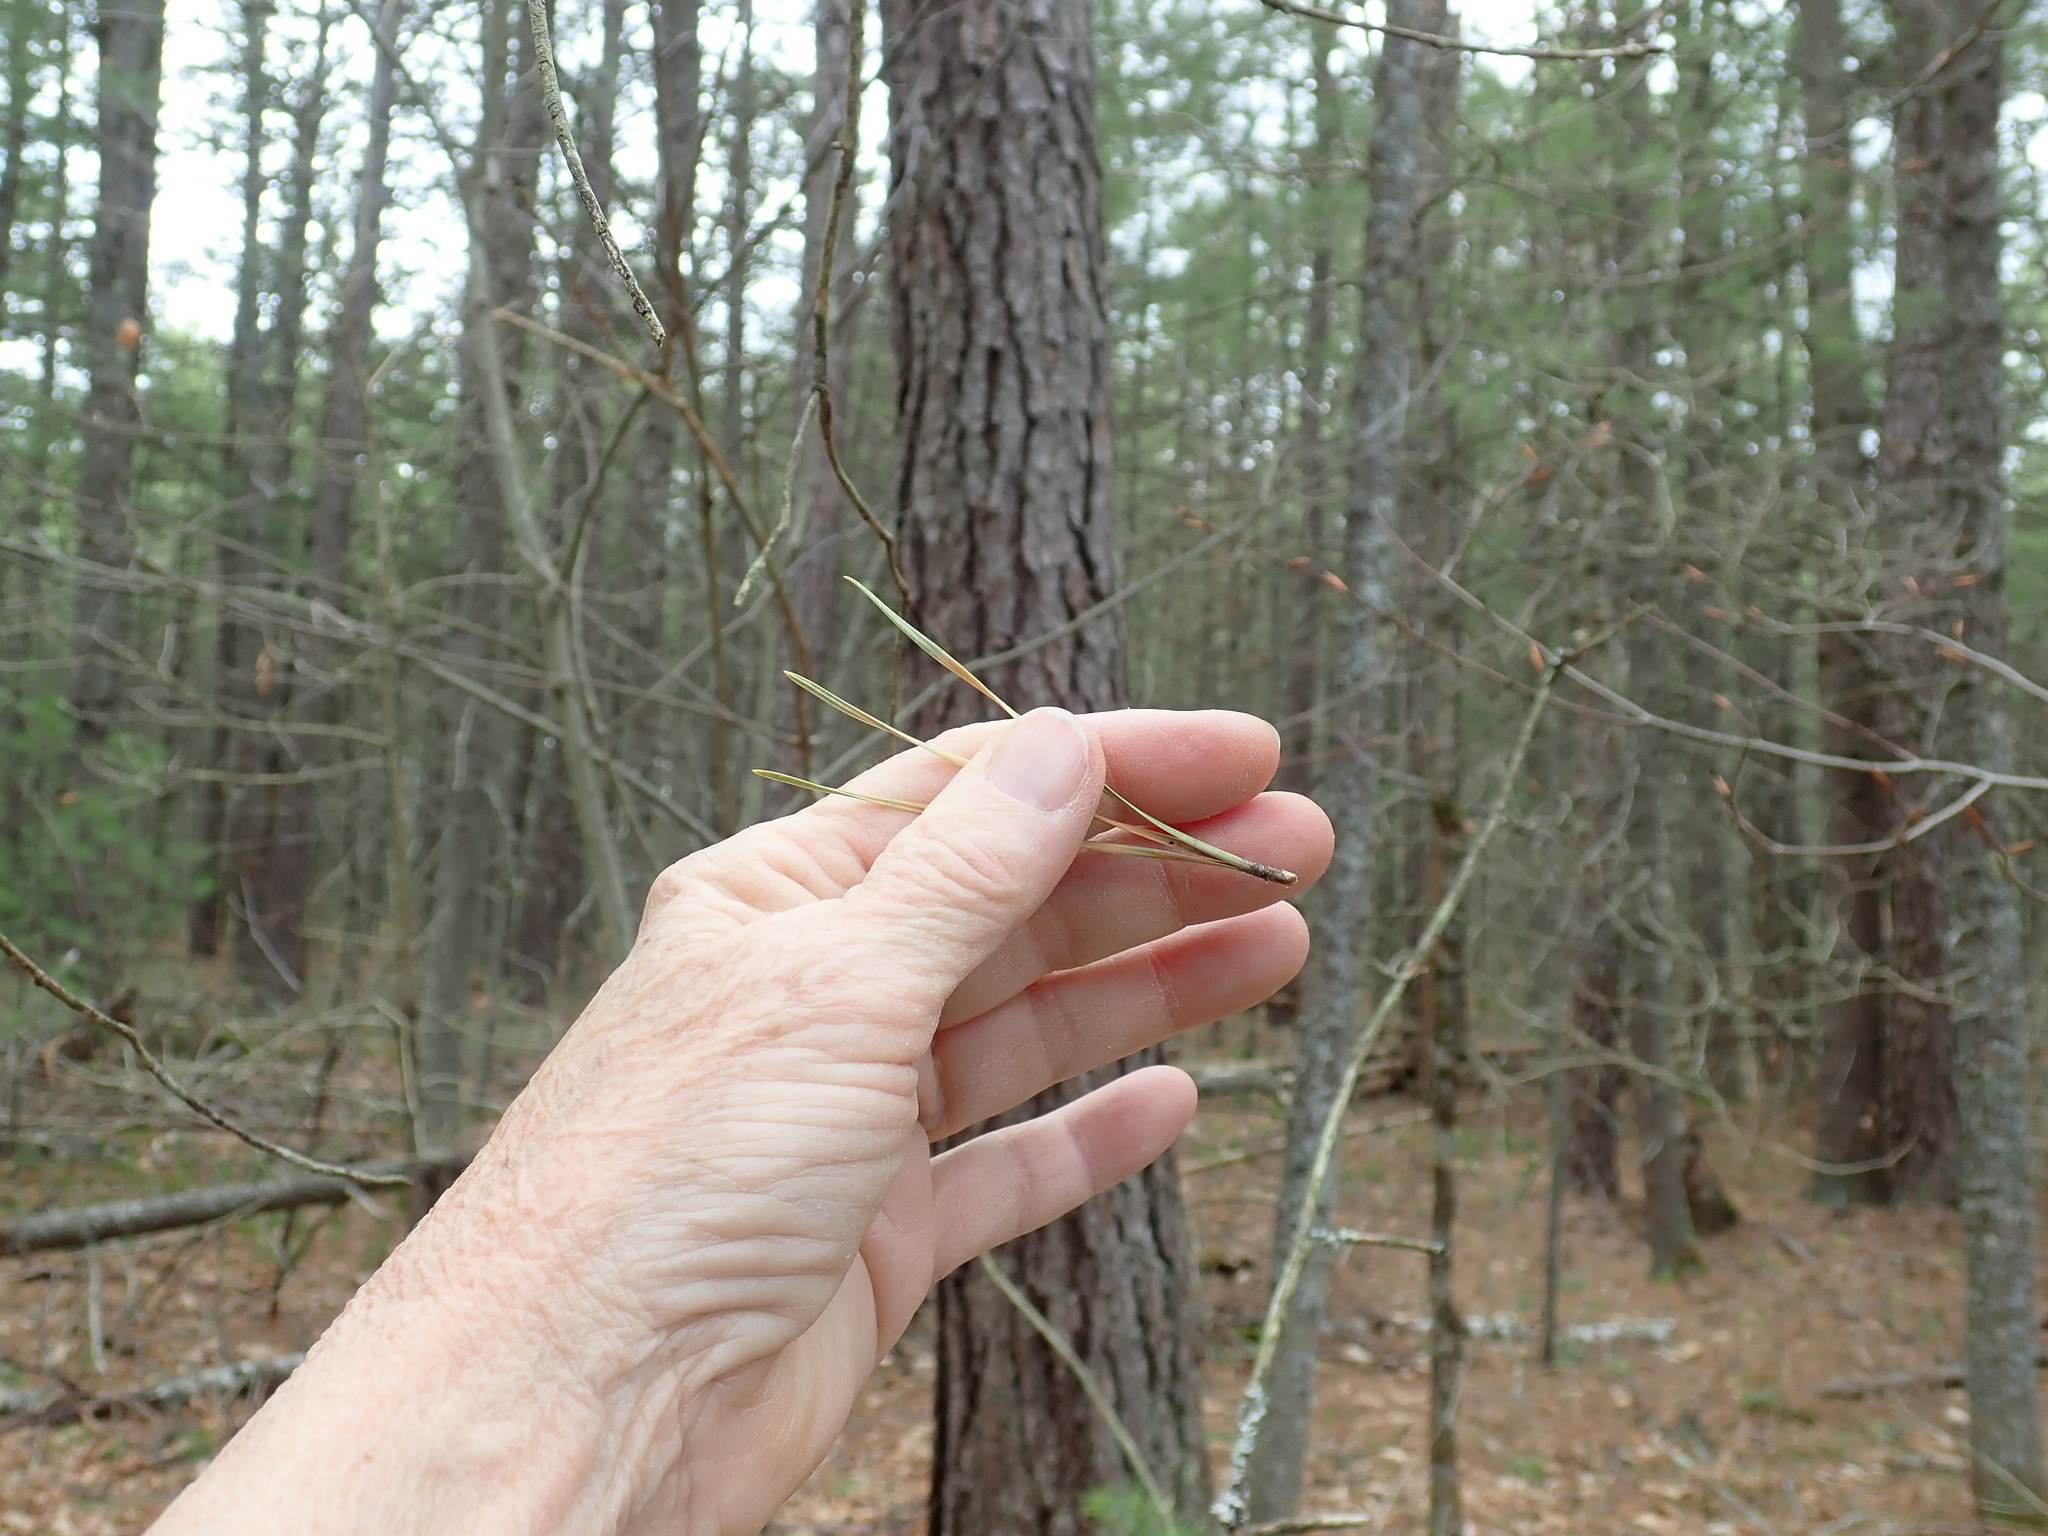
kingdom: Plantae
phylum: Tracheophyta
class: Pinopsida
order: Pinales
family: Pinaceae
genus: Pinus
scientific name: Pinus rigida
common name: Pitch pine
